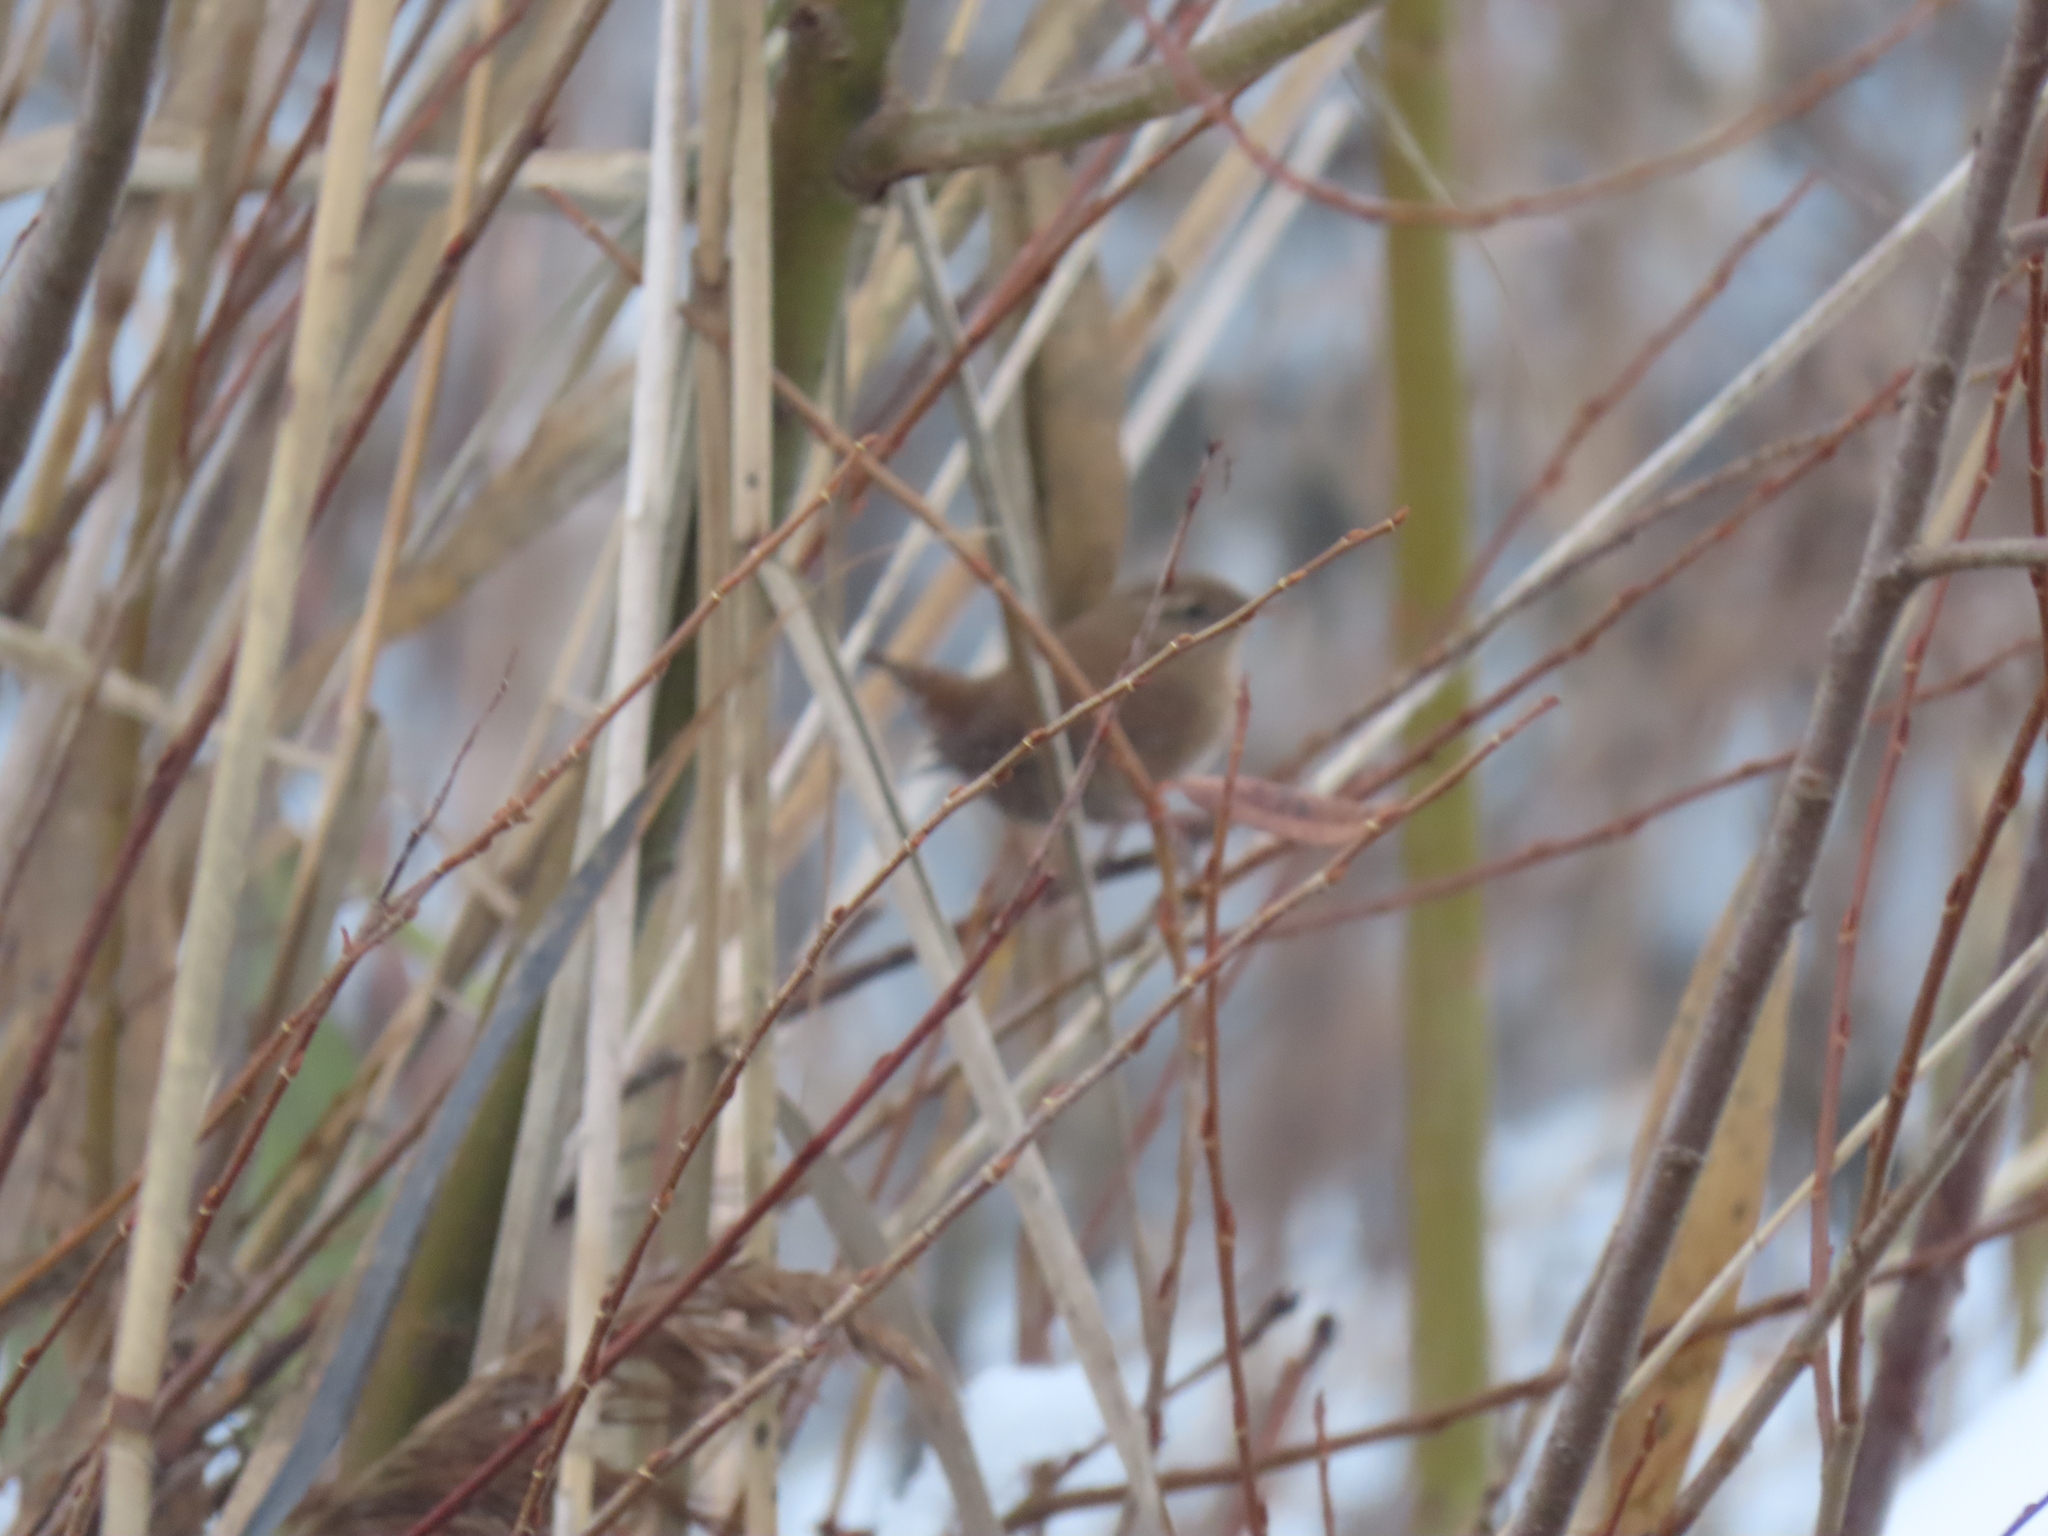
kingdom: Animalia
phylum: Chordata
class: Aves
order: Passeriformes
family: Troglodytidae
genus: Troglodytes
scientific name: Troglodytes troglodytes
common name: Eurasian wren
